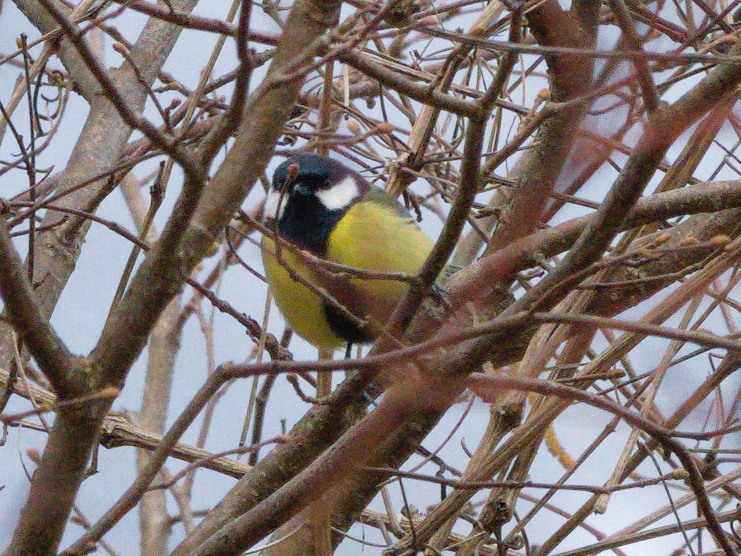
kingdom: Animalia
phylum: Chordata
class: Aves
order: Passeriformes
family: Paridae
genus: Parus
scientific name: Parus major
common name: Great tit
